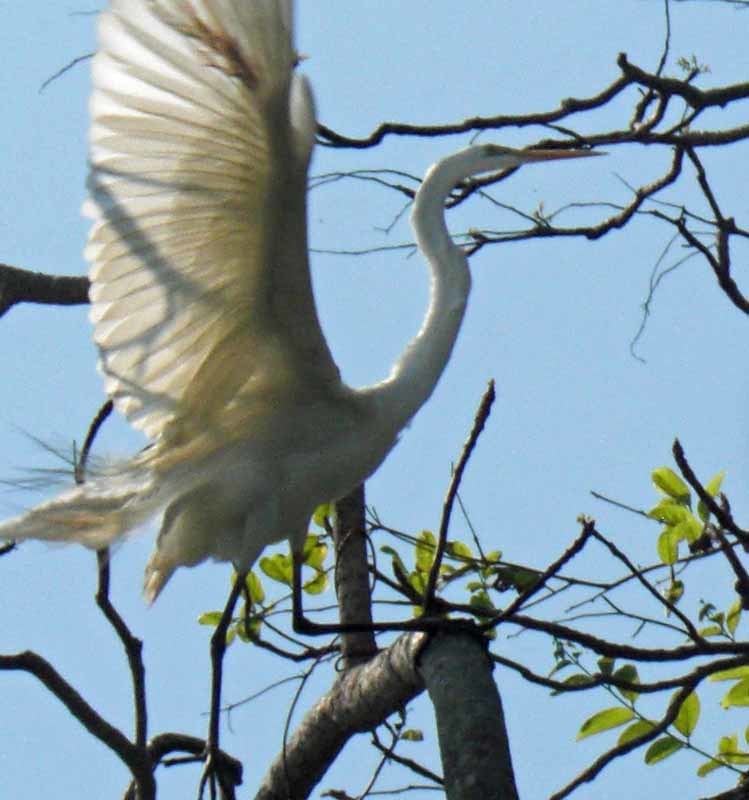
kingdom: Animalia
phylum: Chordata
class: Aves
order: Pelecaniformes
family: Ardeidae
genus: Ardea
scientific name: Ardea alba
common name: Great egret
